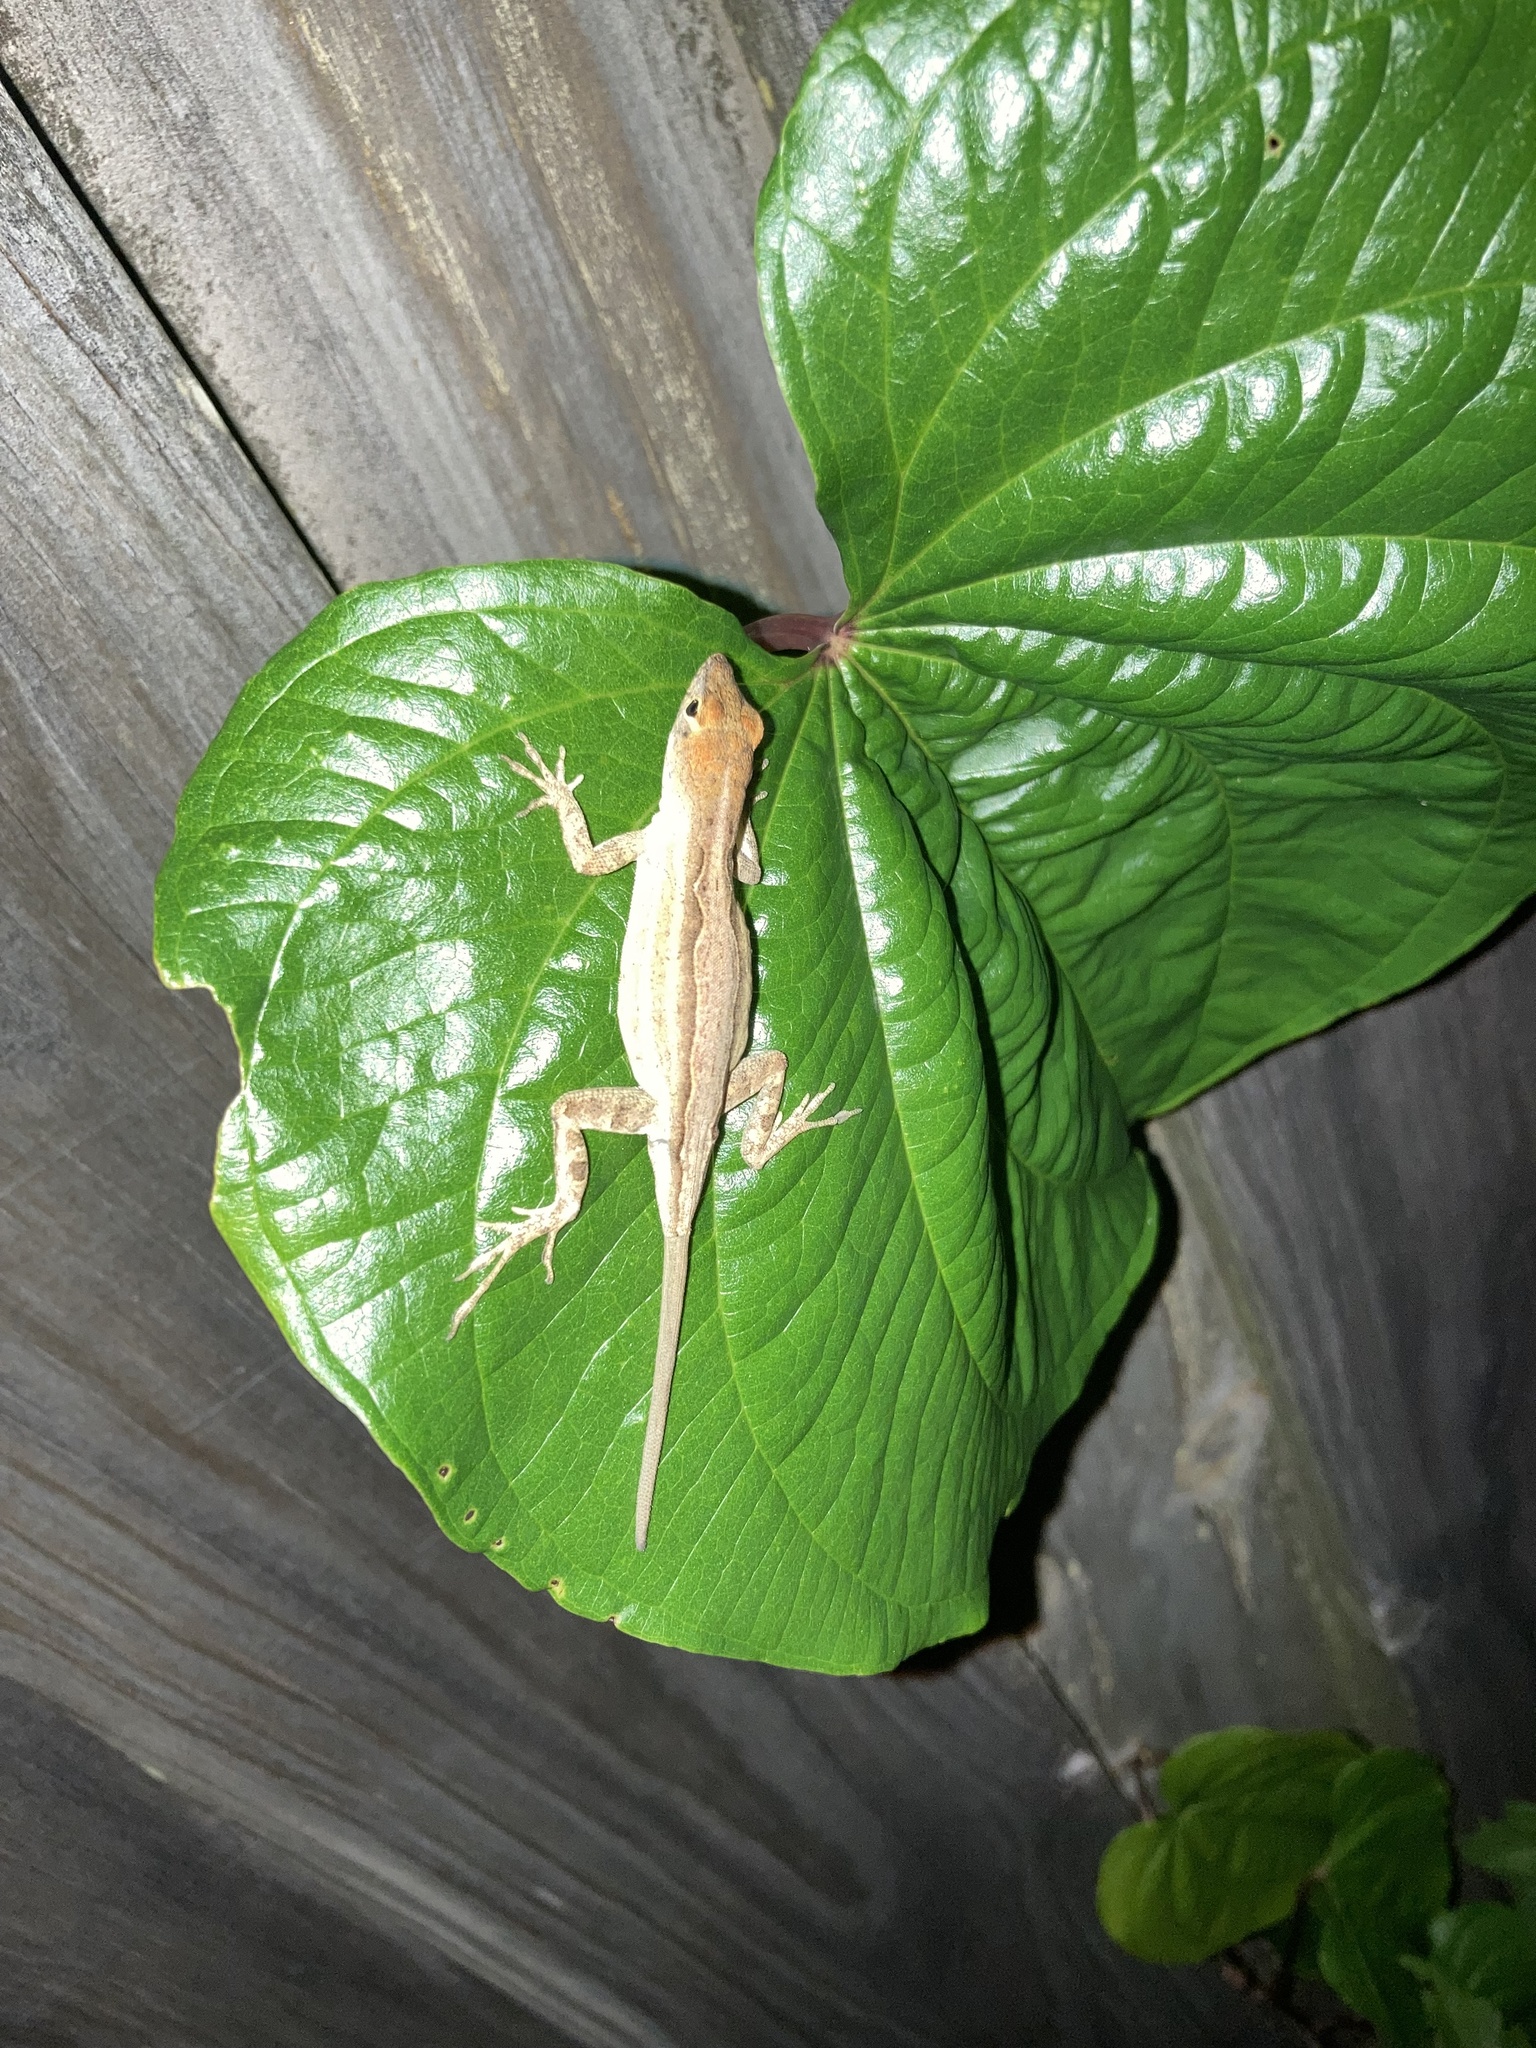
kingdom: Animalia
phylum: Chordata
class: Squamata
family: Dactyloidae
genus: Anolis
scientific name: Anolis sagrei
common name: Brown anole
